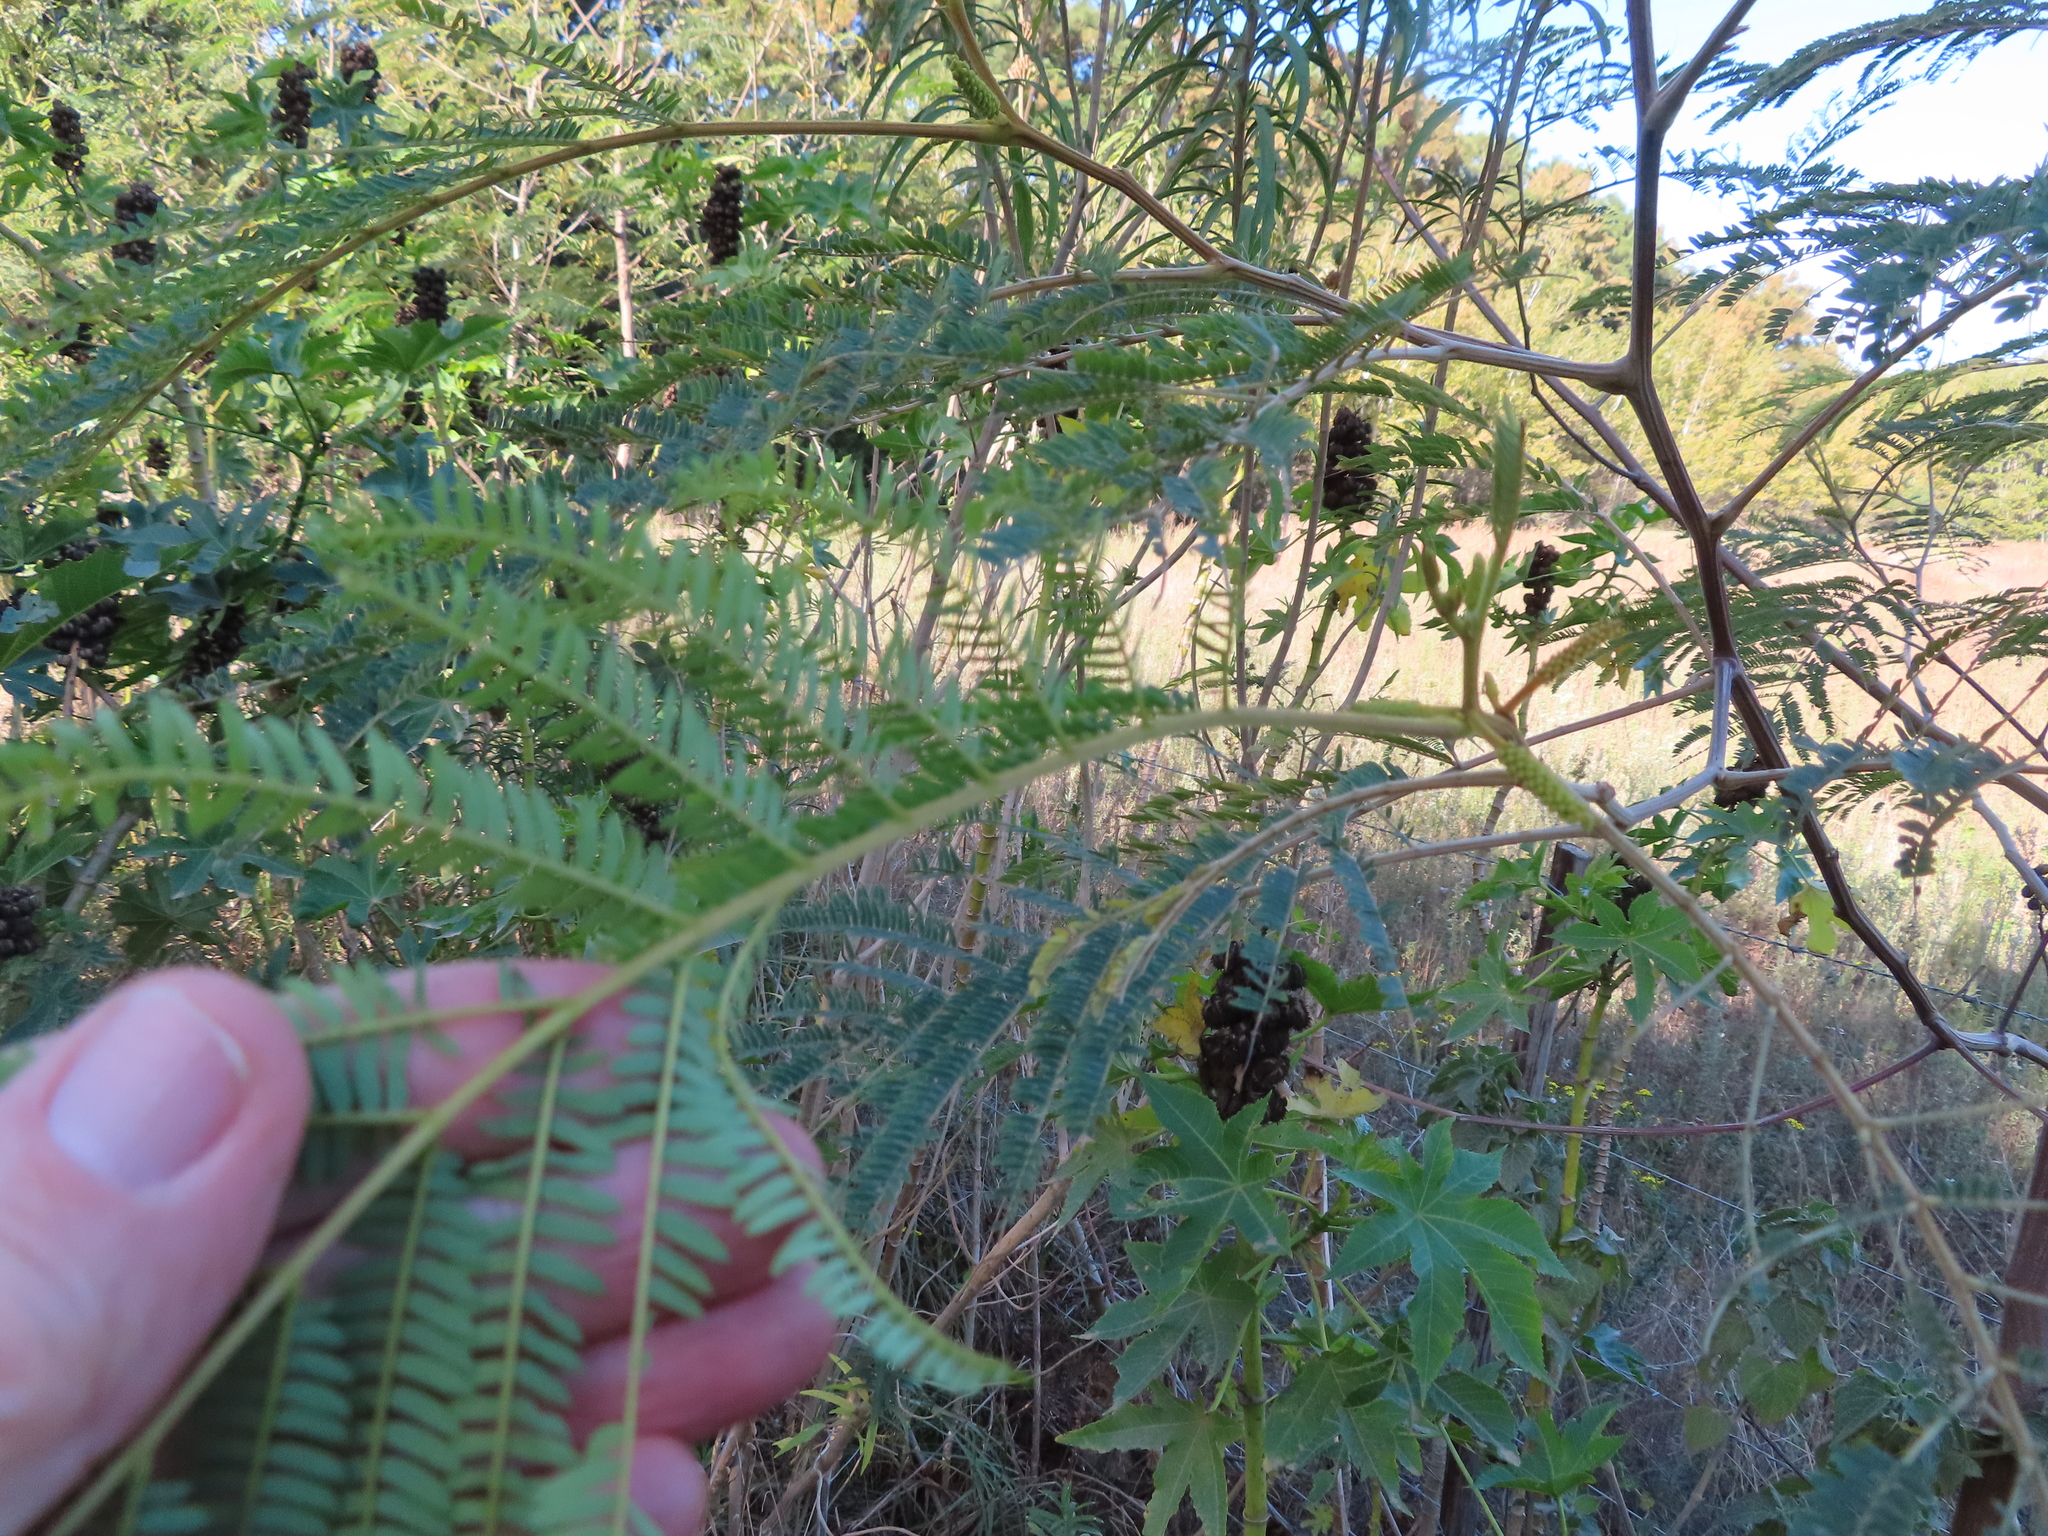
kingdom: Plantae
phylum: Tracheophyta
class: Magnoliopsida
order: Fabales
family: Fabaceae
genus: Paraserianthes
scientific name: Paraserianthes lophantha
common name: Plume albizia
